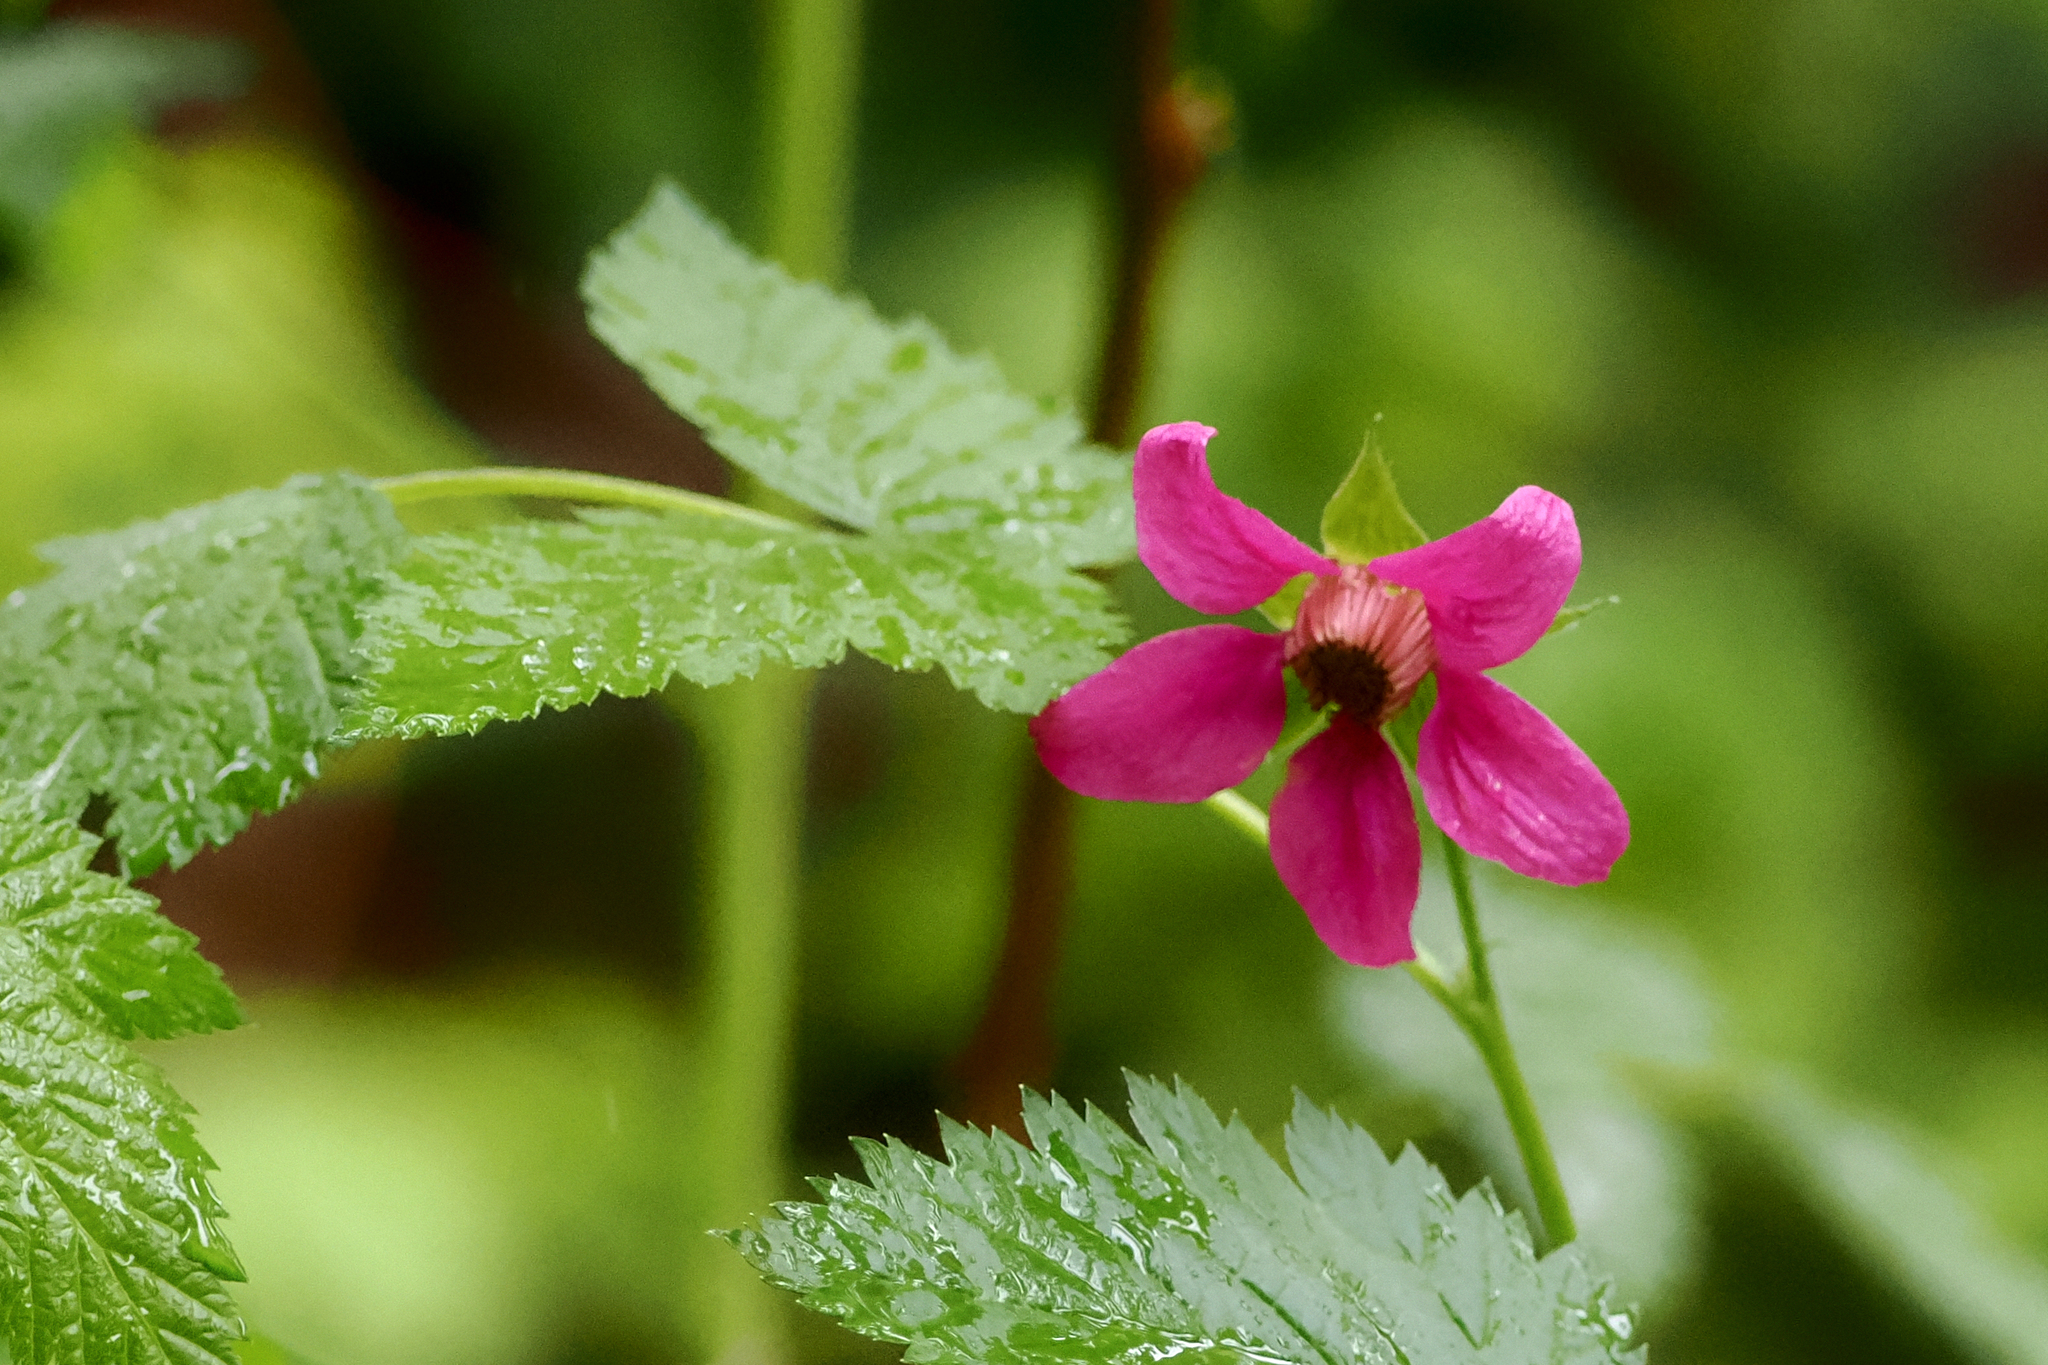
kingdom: Plantae
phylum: Tracheophyta
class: Magnoliopsida
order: Rosales
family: Rosaceae
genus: Rubus
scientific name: Rubus spectabilis
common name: Salmonberry
